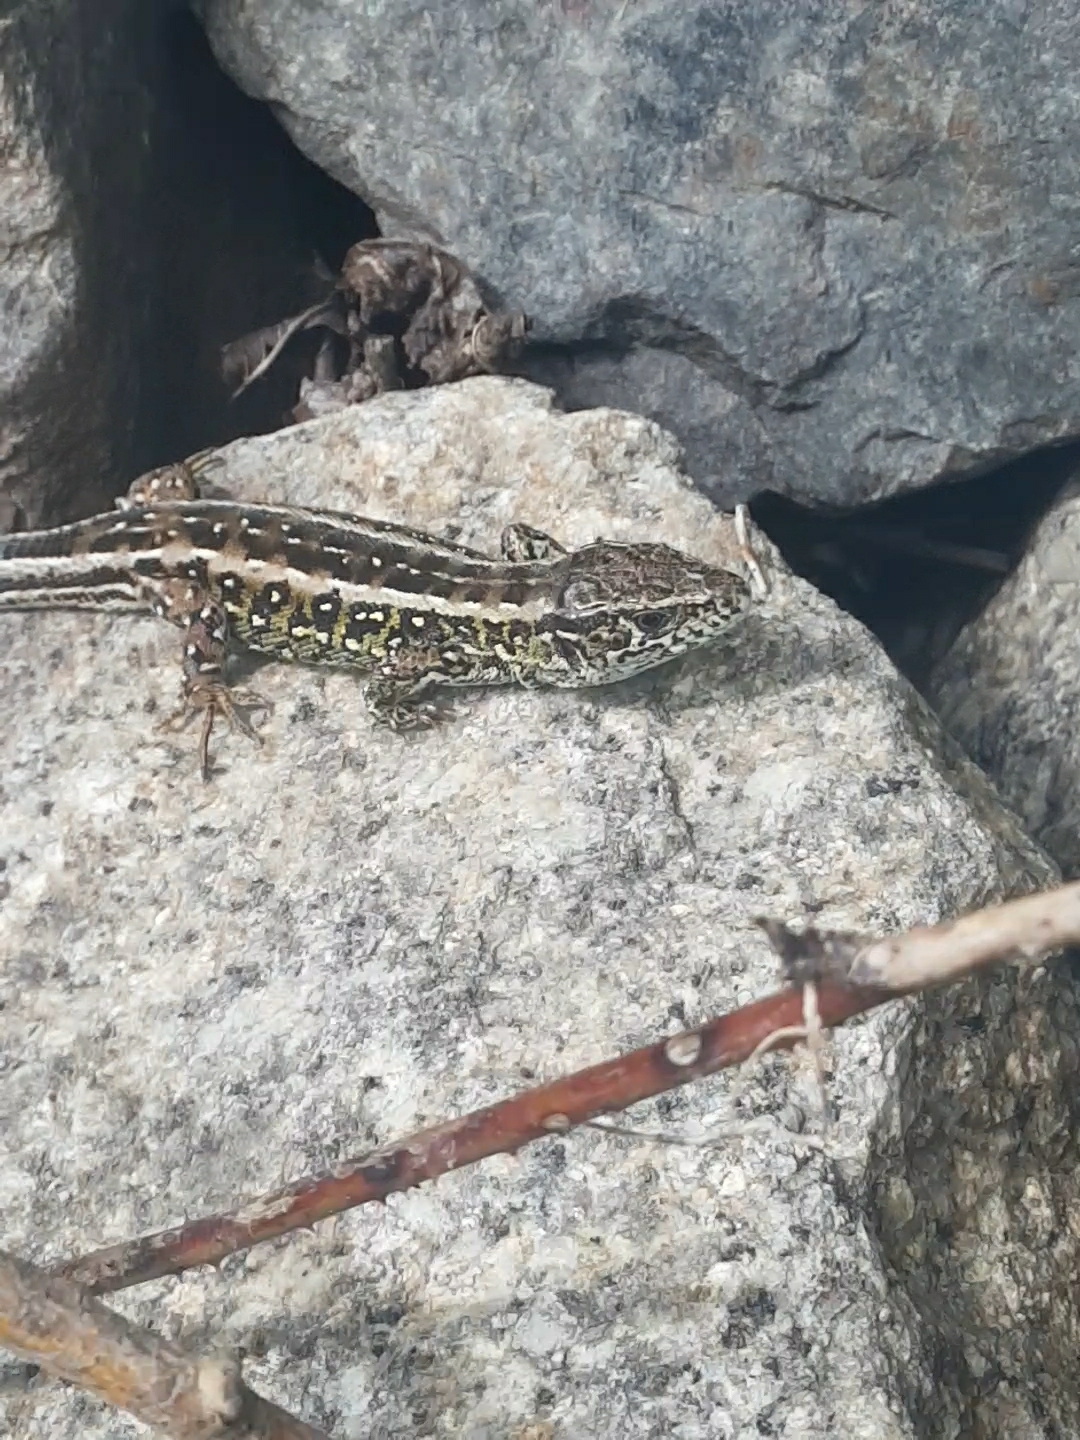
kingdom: Animalia
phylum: Chordata
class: Squamata
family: Lacertidae
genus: Lacerta
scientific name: Lacerta agilis
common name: Sand lizard
